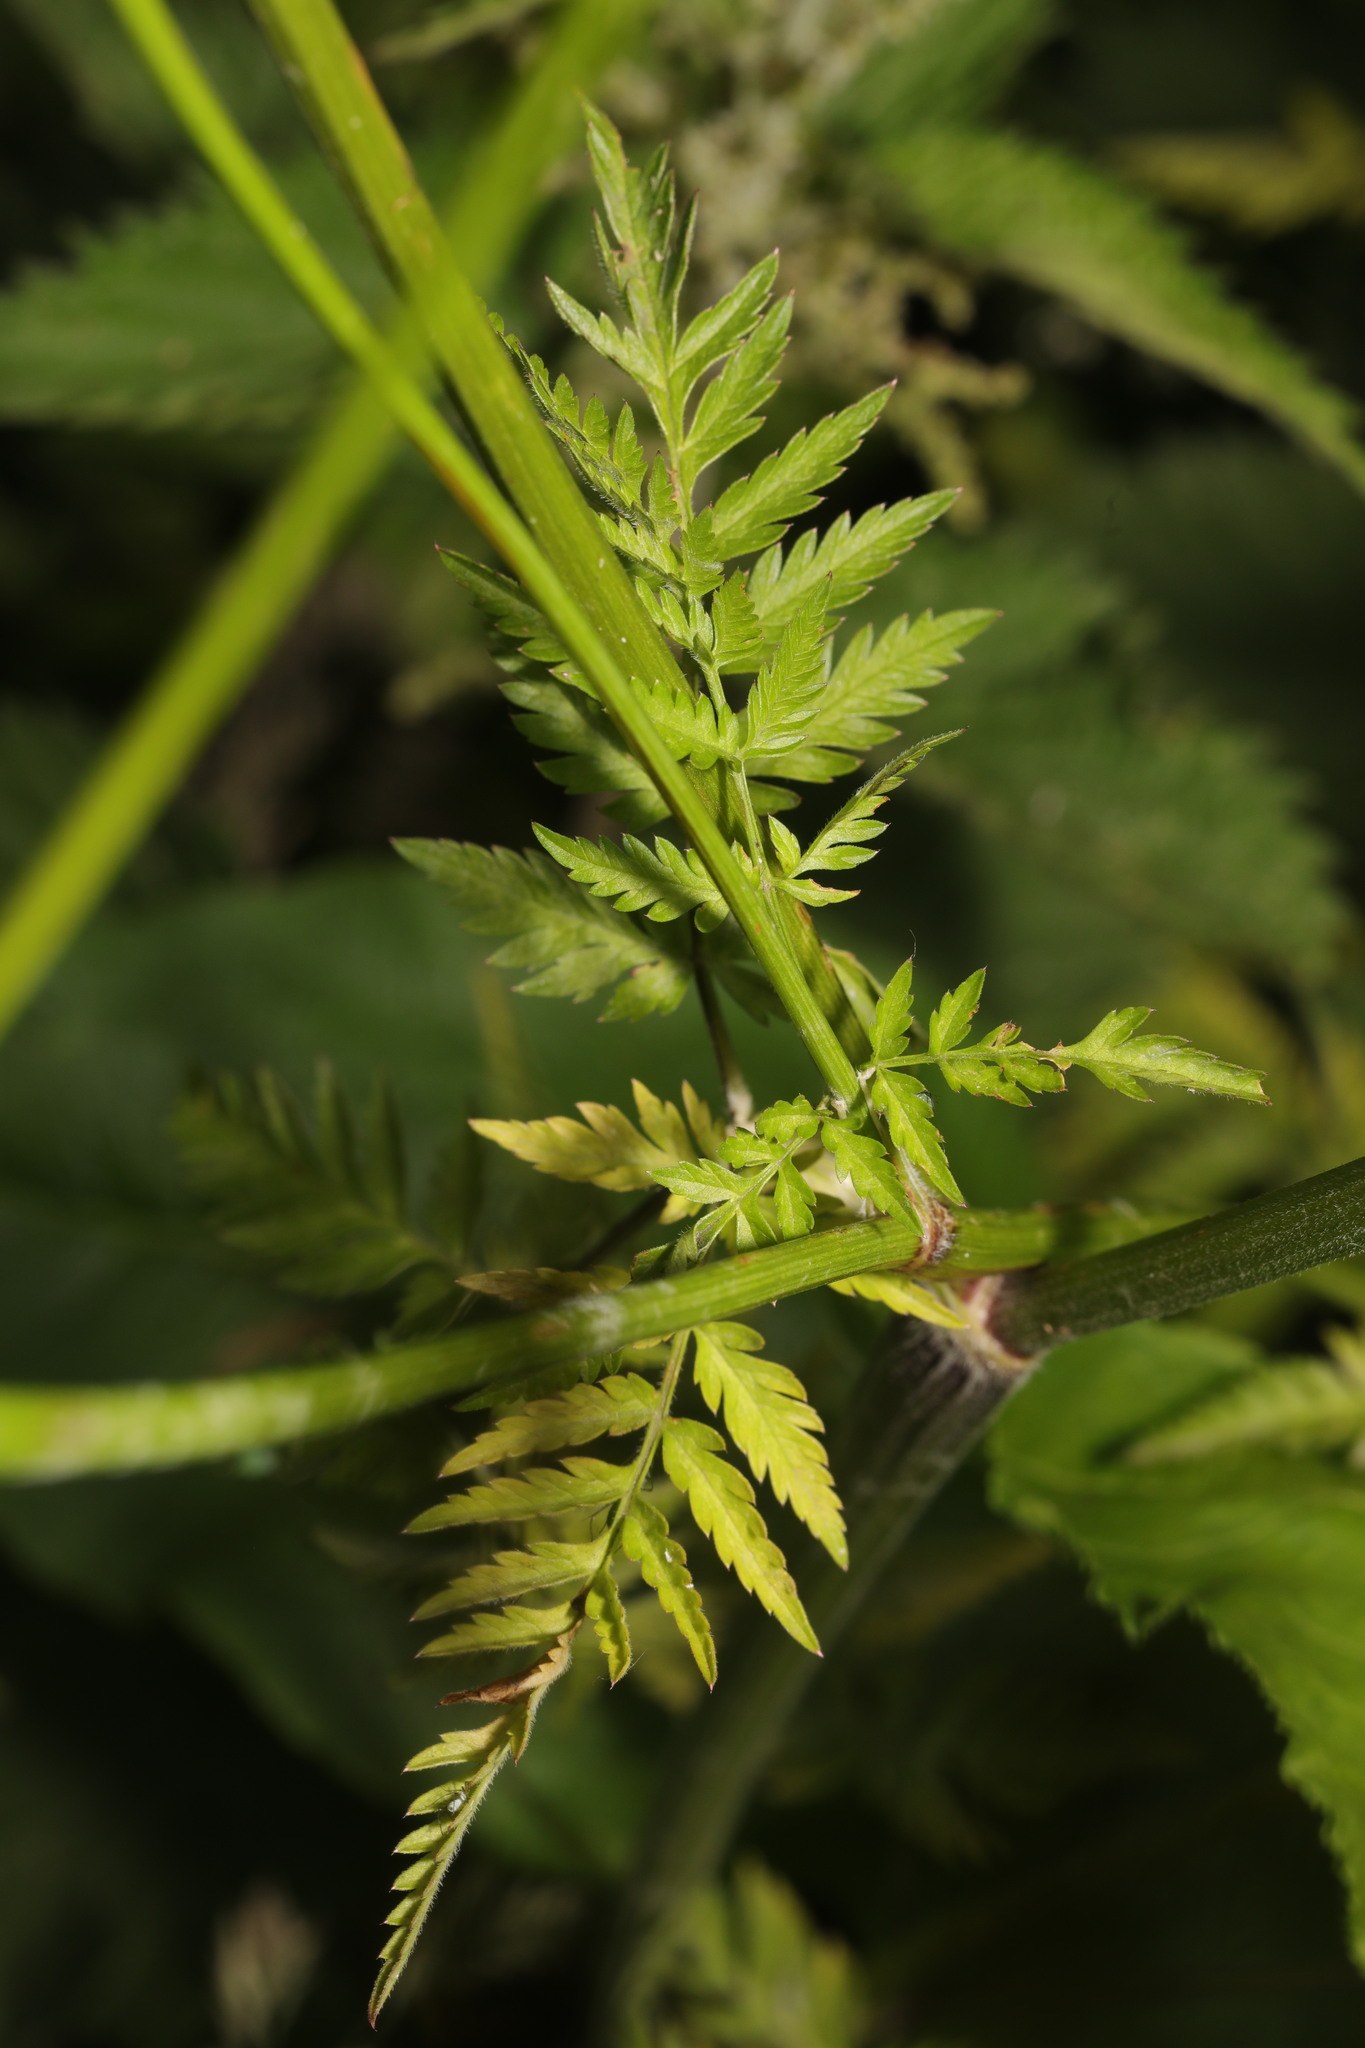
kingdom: Plantae
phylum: Tracheophyta
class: Magnoliopsida
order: Apiales
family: Apiaceae
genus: Anthriscus
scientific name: Anthriscus sylvestris
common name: Cow parsley
